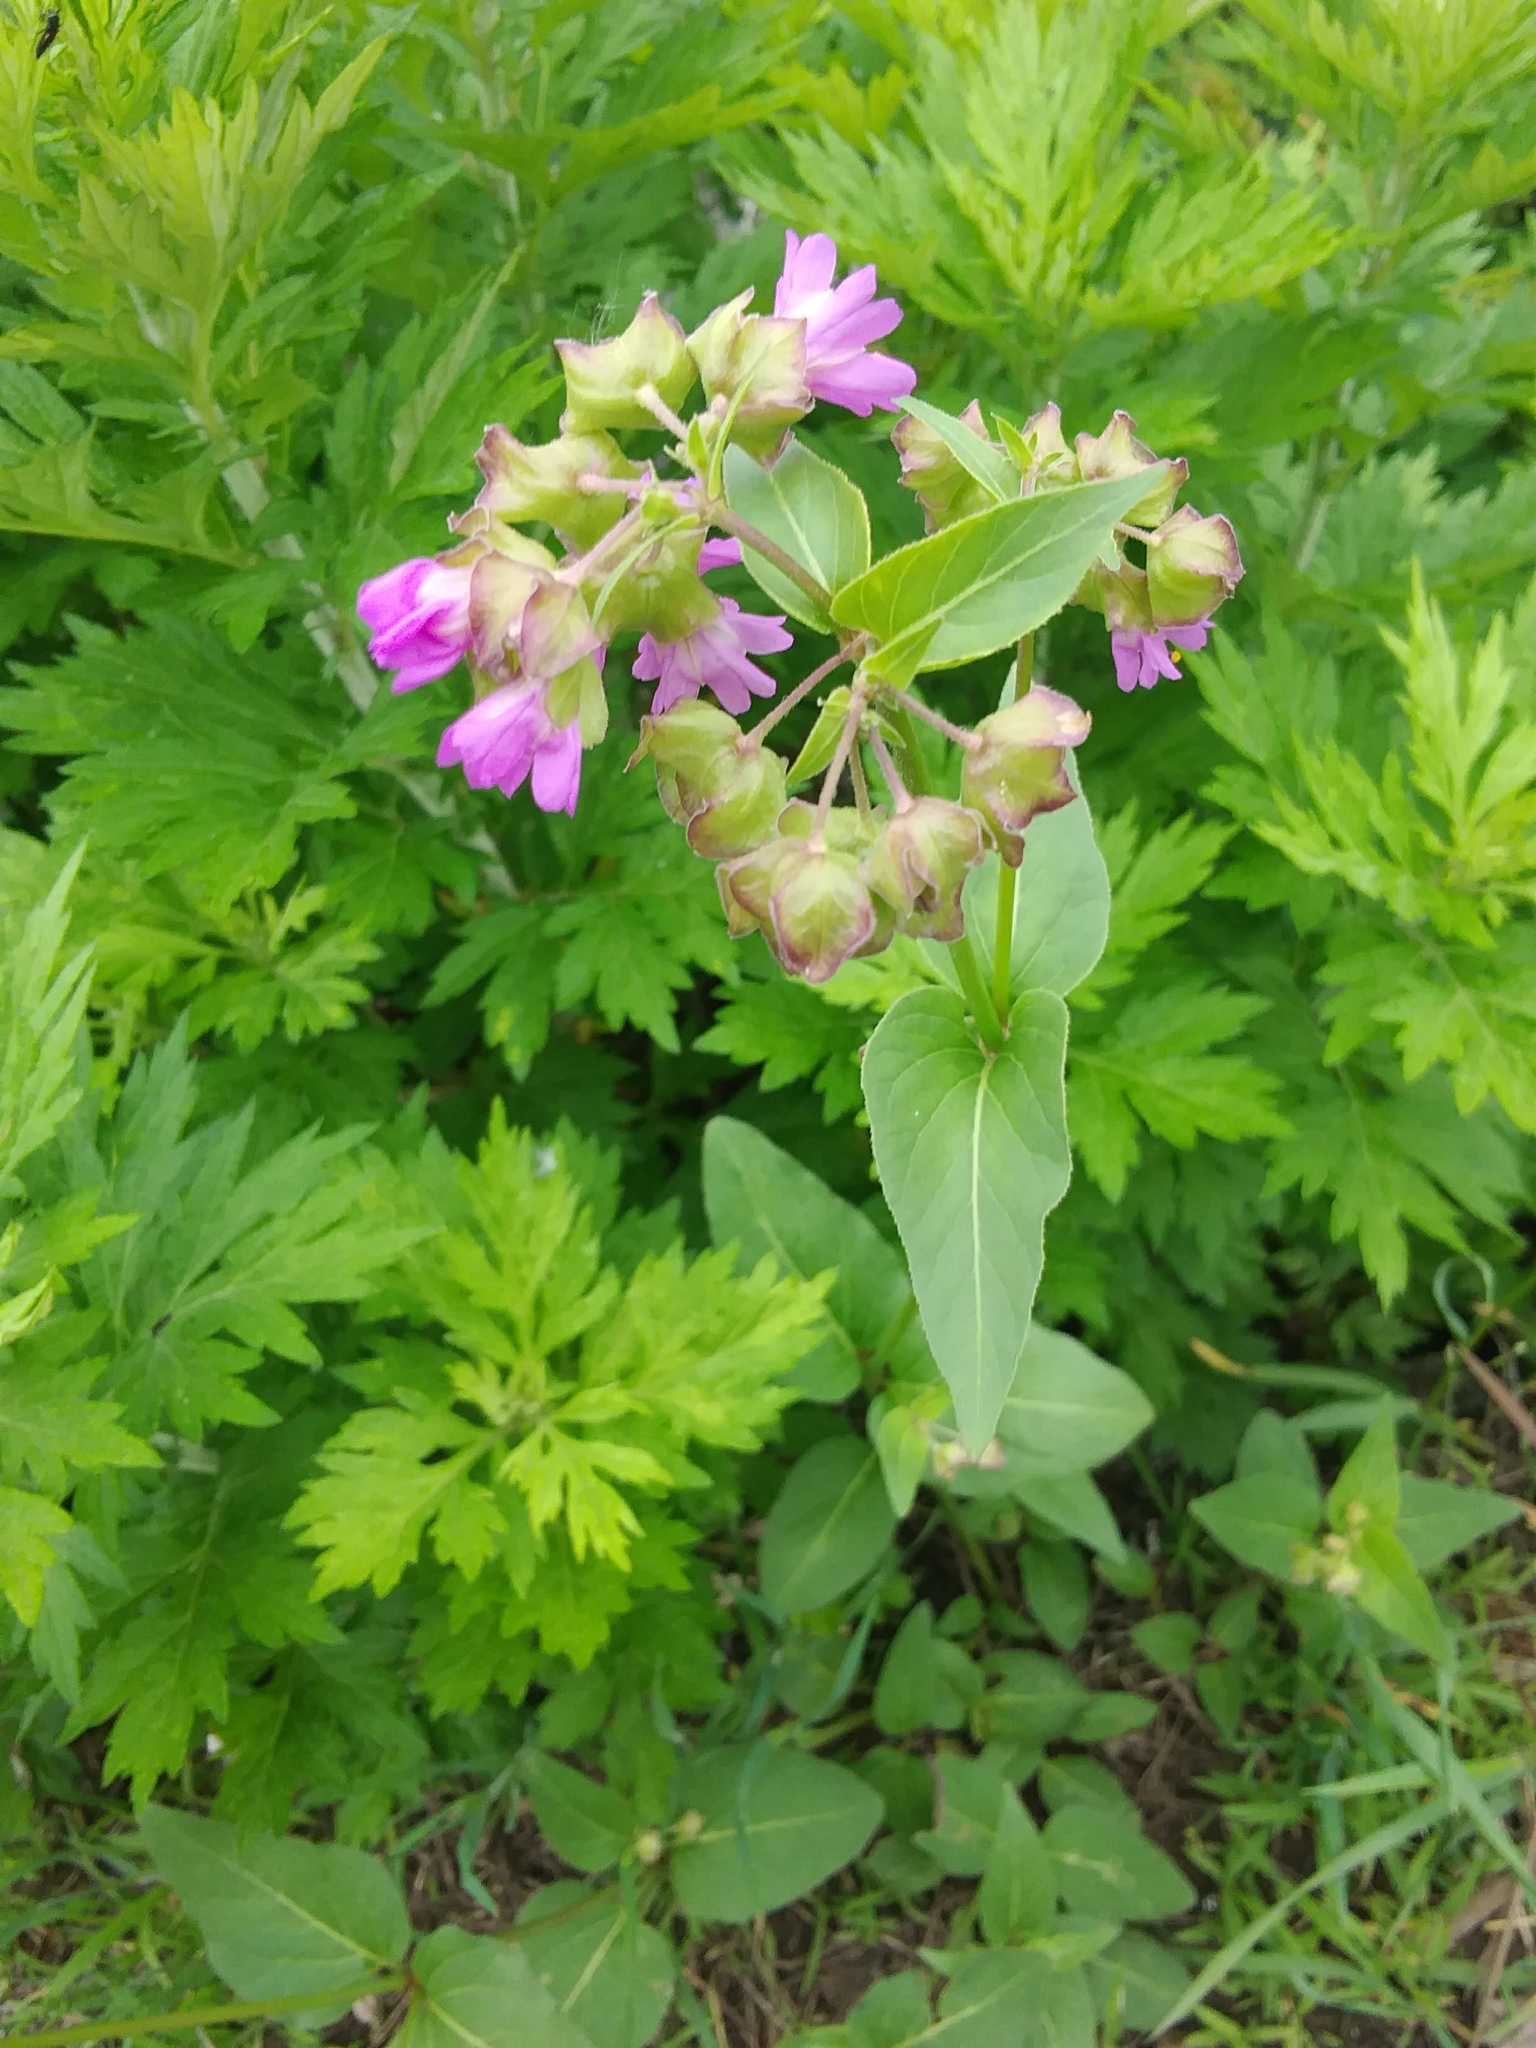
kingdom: Plantae
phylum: Tracheophyta
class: Magnoliopsida
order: Caryophyllales
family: Nyctaginaceae
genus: Mirabilis
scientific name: Mirabilis nyctaginea
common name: Umbrella wort
